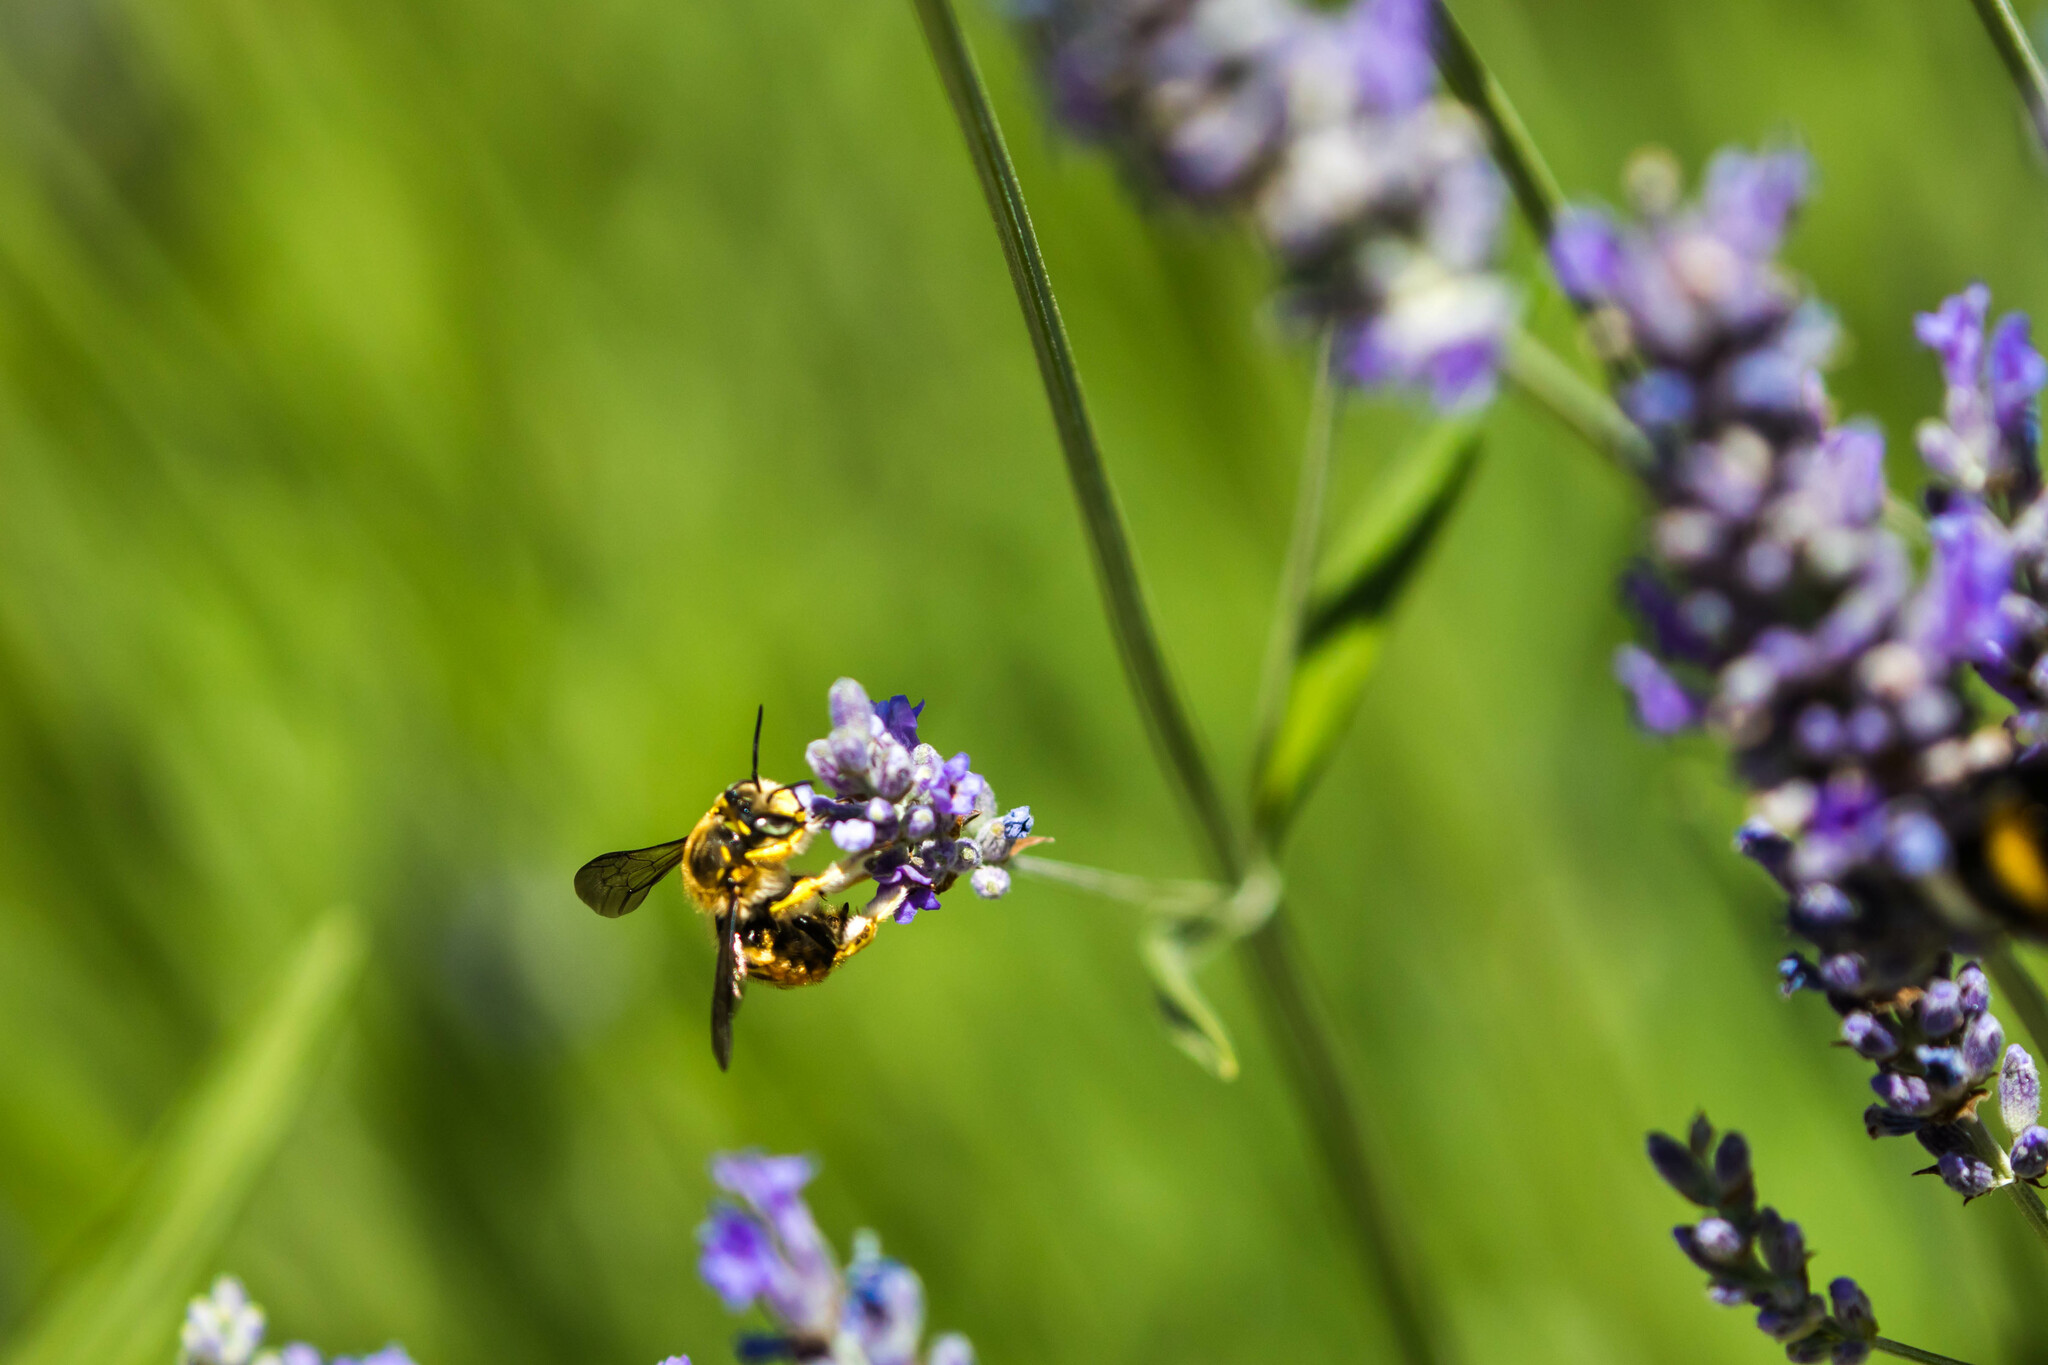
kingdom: Animalia
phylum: Arthropoda
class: Insecta
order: Hymenoptera
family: Megachilidae
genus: Anthidium
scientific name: Anthidium manicatum
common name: Wool carder bee
